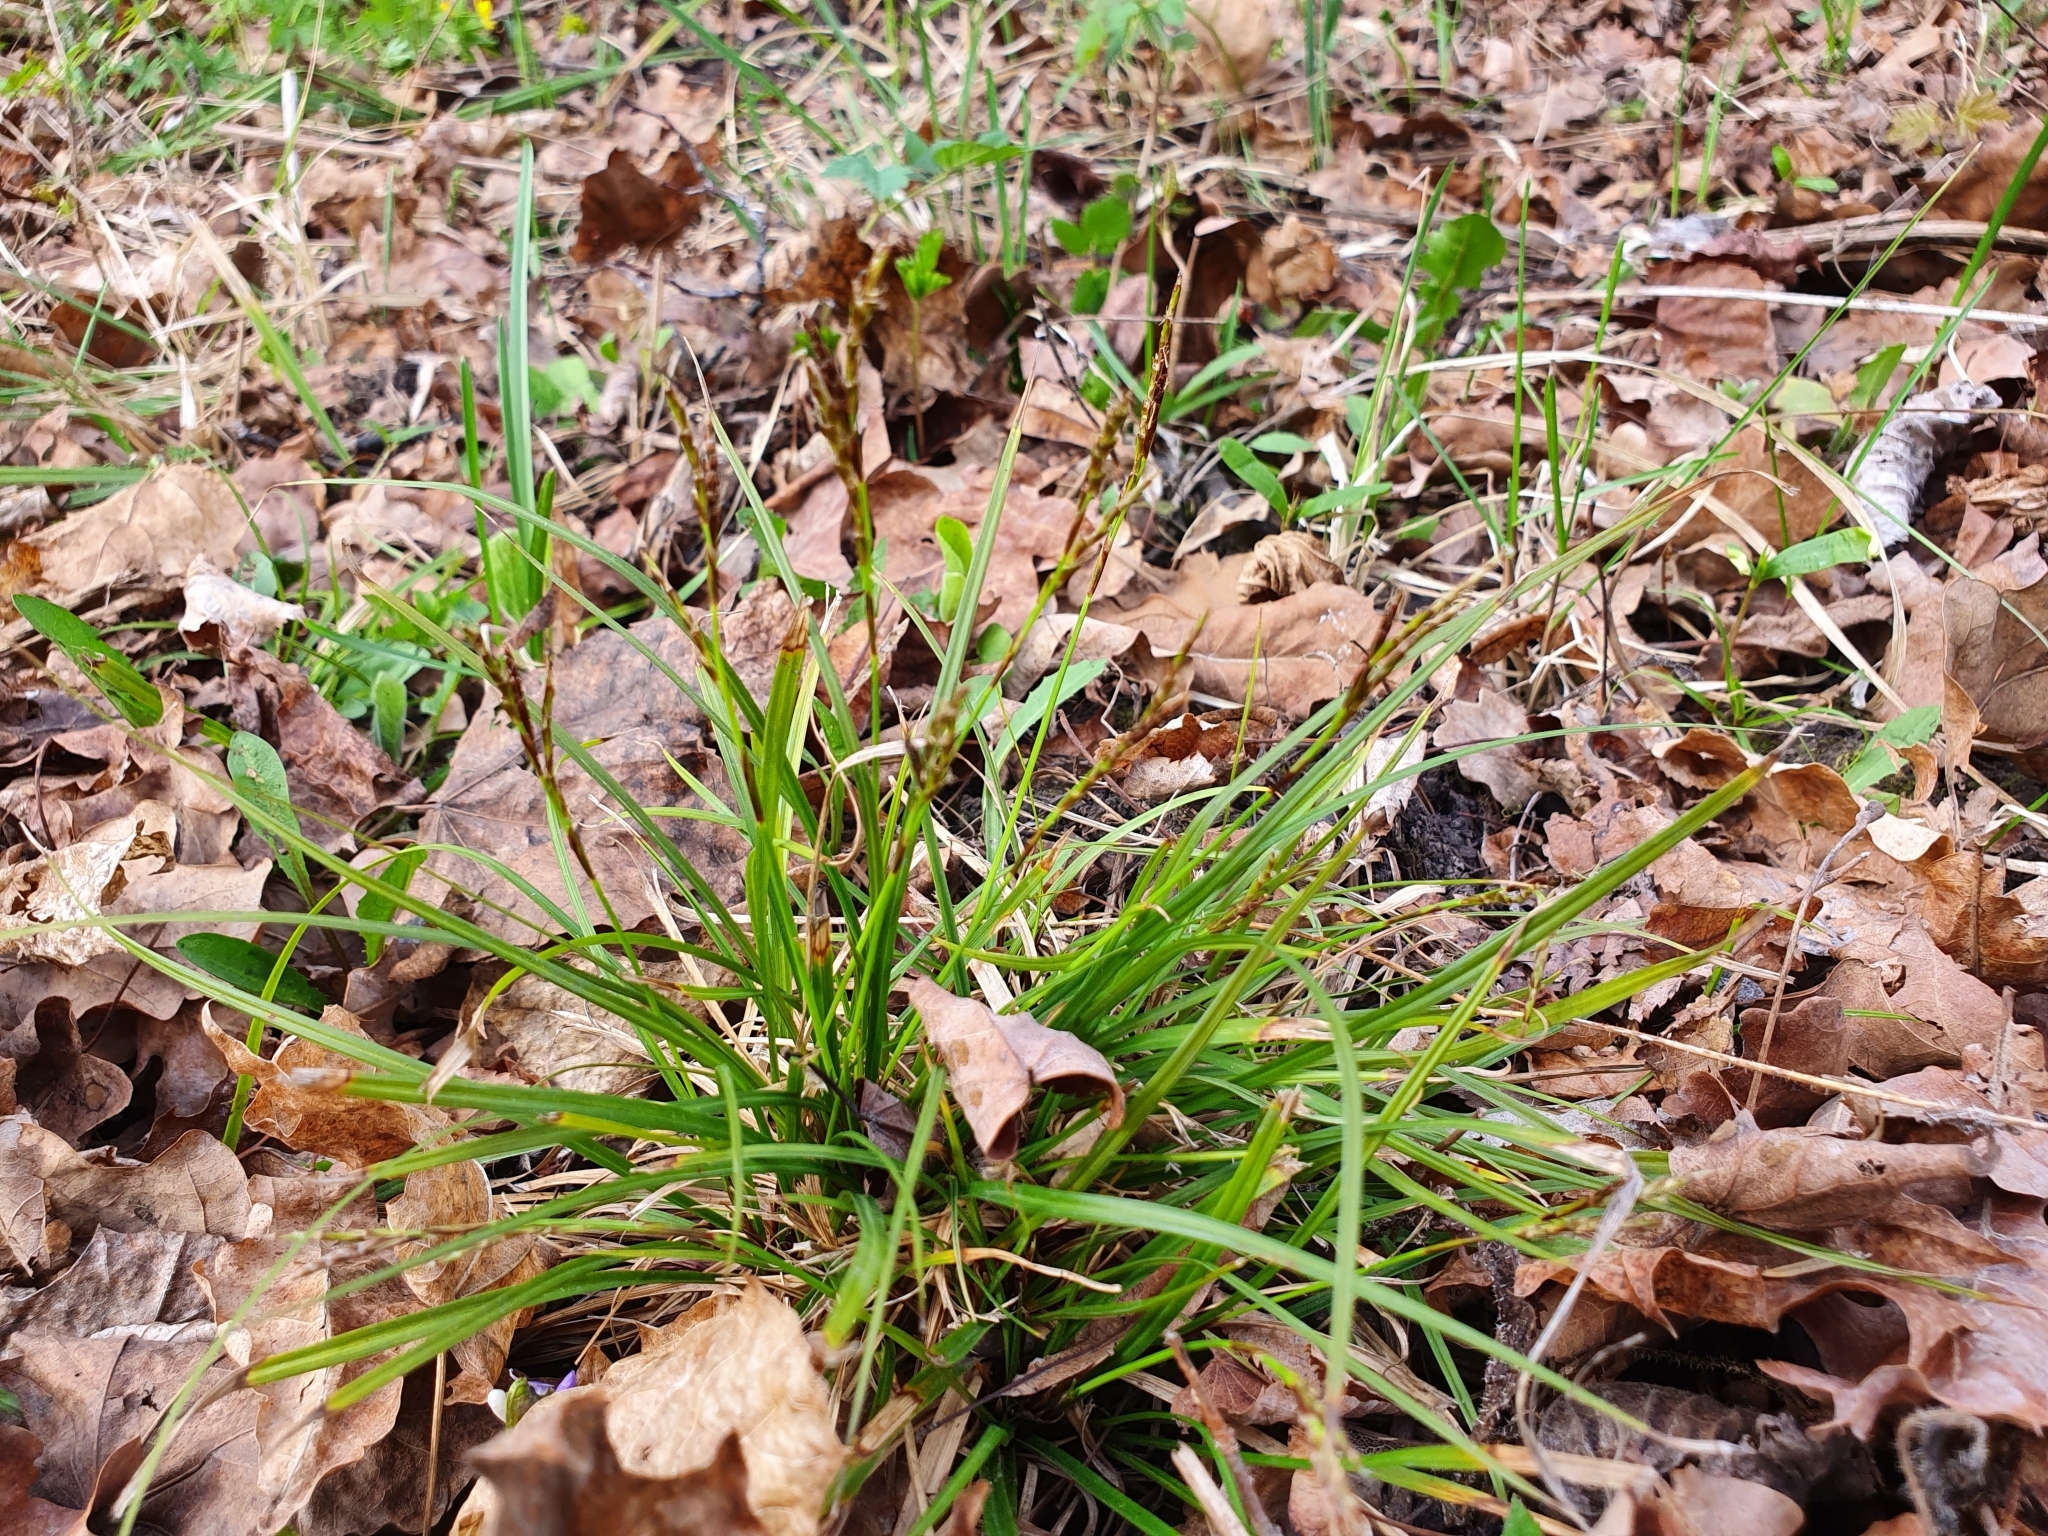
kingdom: Plantae
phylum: Tracheophyta
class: Liliopsida
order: Poales
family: Cyperaceae
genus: Carex
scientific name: Carex digitata
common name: Fingered sedge
